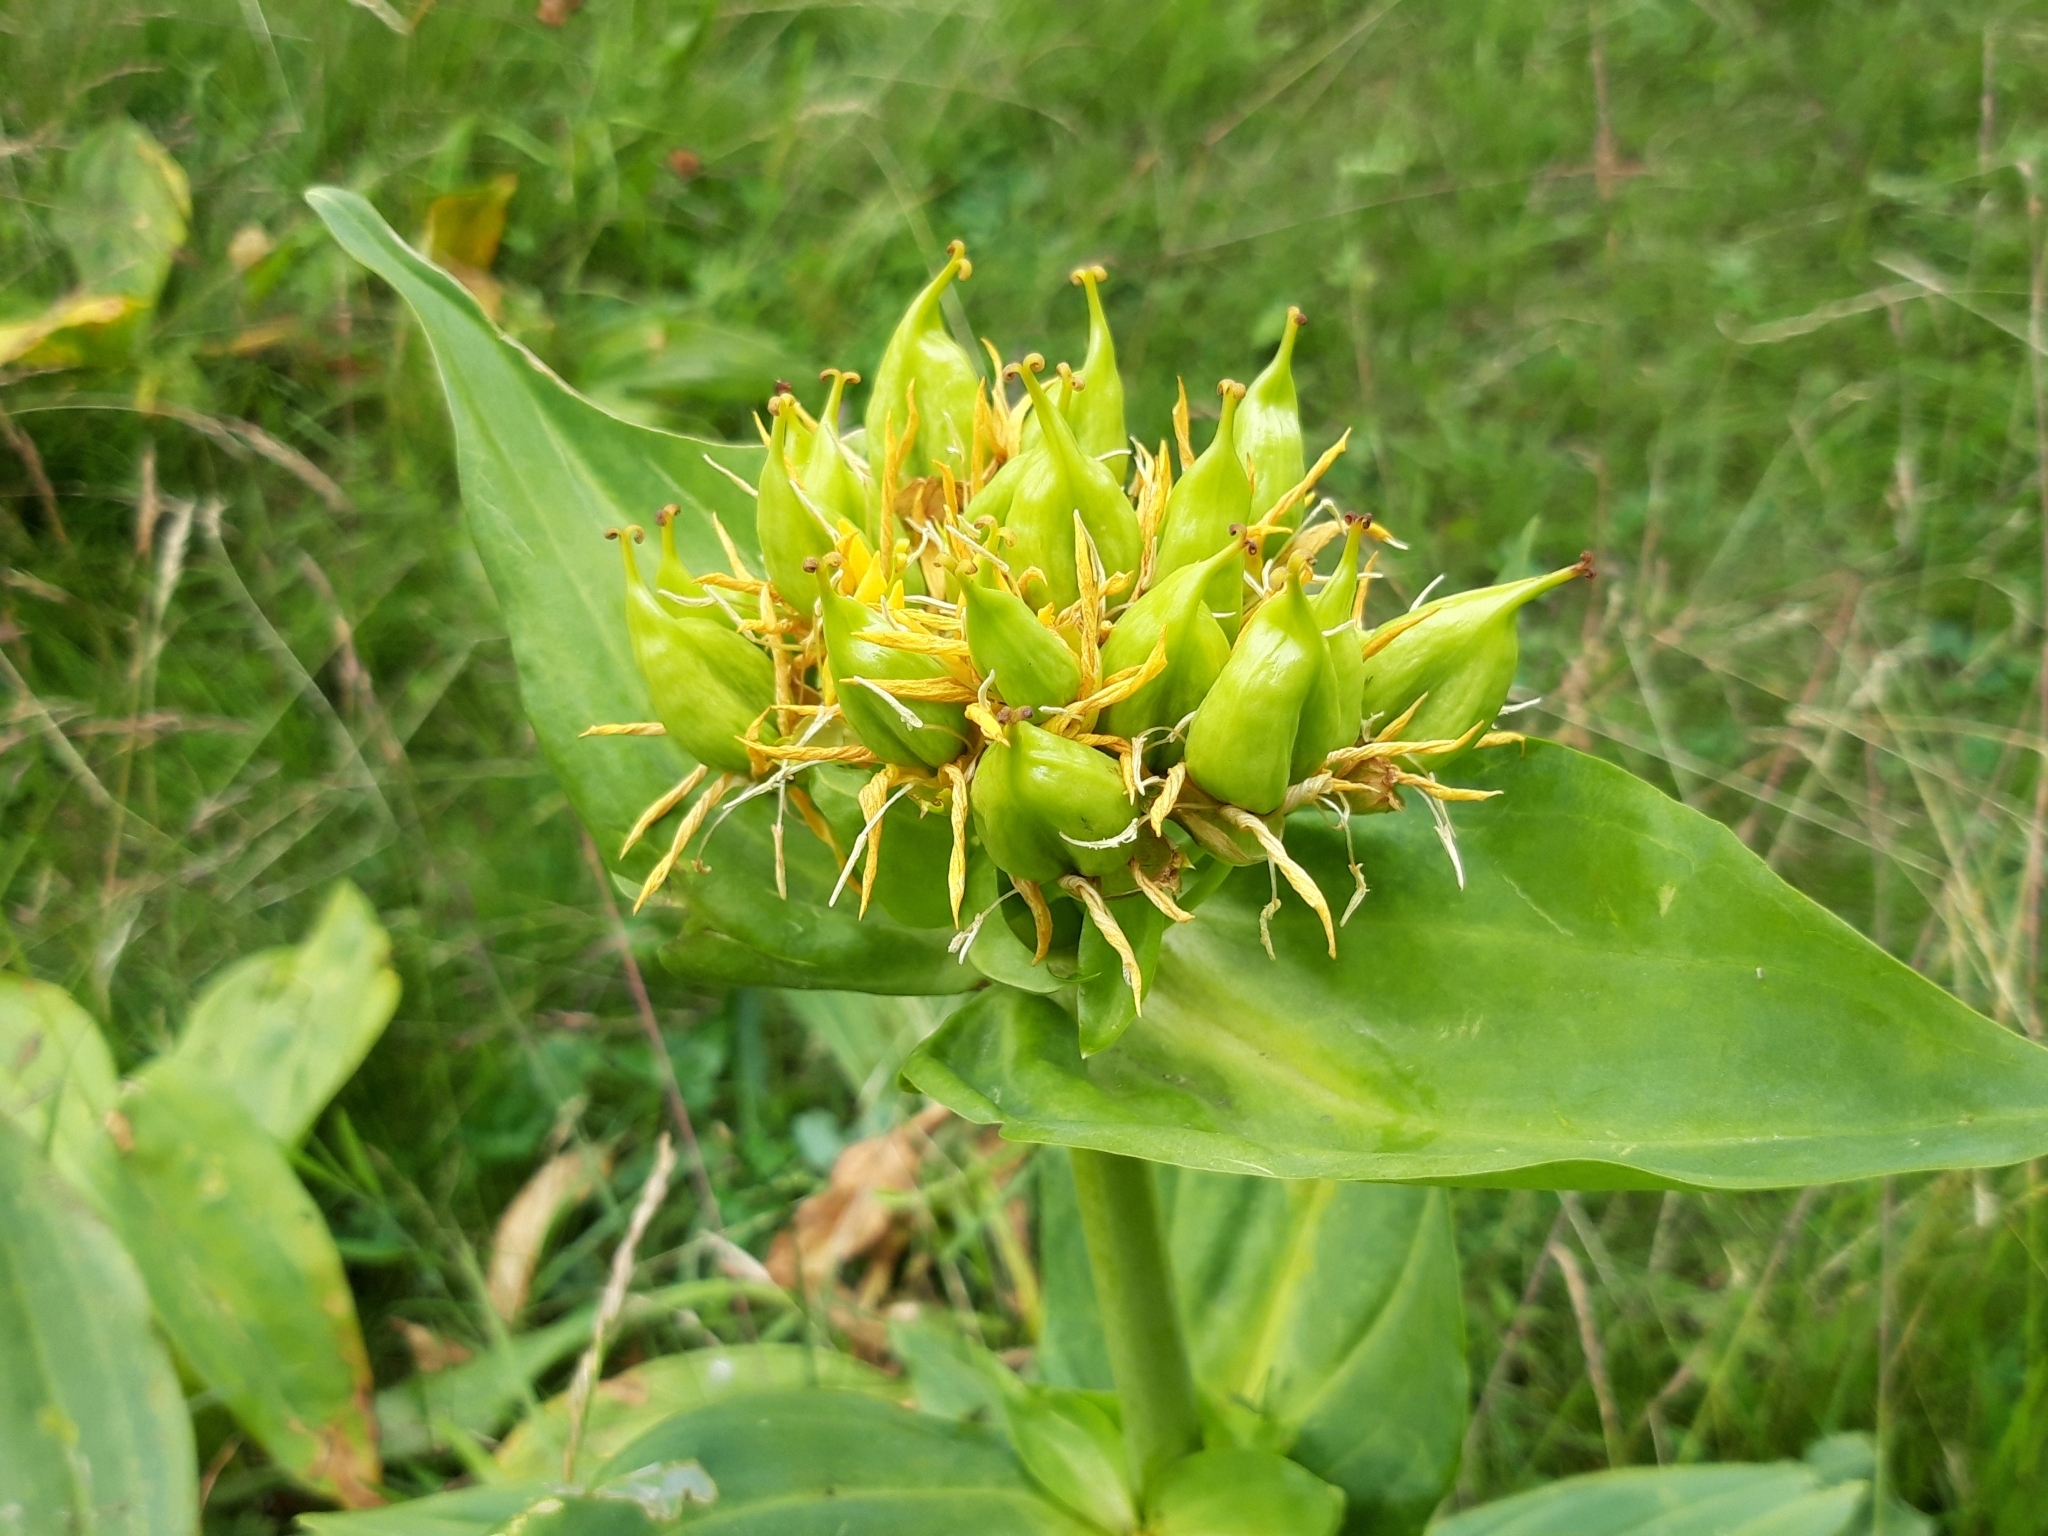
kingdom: Plantae
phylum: Tracheophyta
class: Magnoliopsida
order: Gentianales
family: Gentianaceae
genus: Gentiana
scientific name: Gentiana lutea
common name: Great yellow gentian
